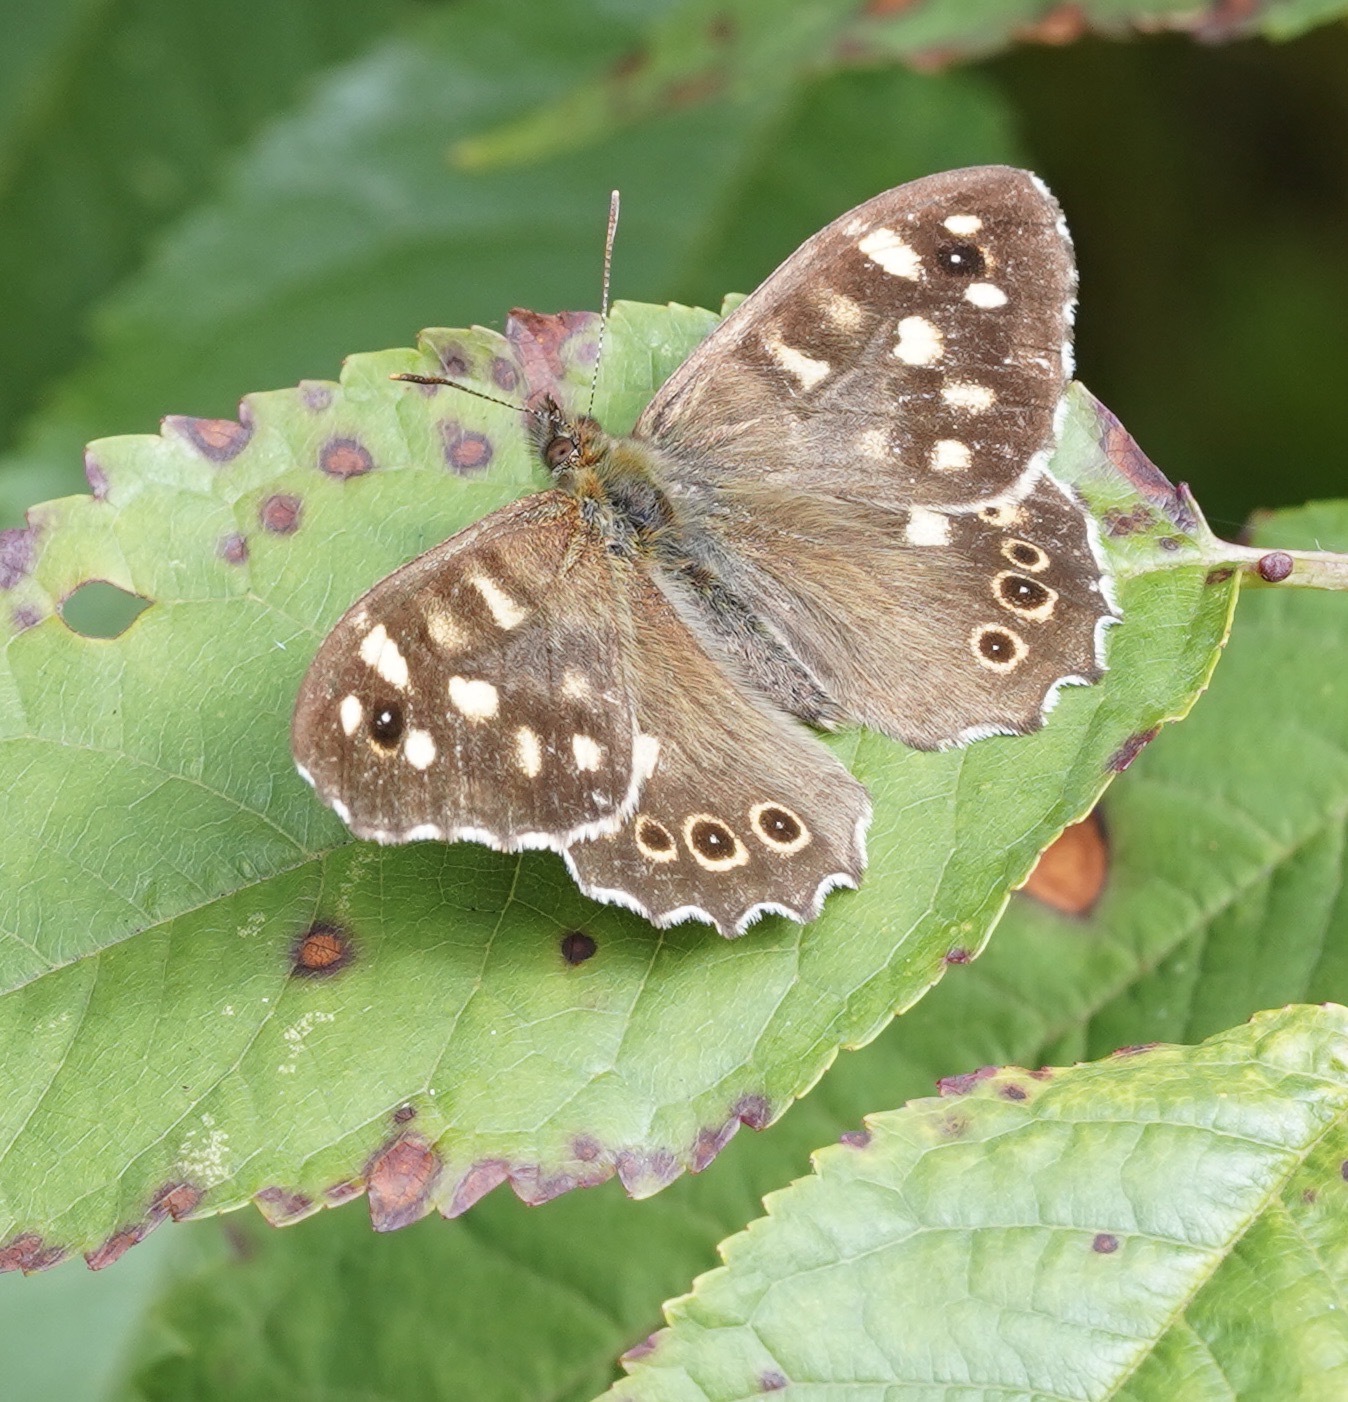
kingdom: Animalia
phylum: Arthropoda
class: Insecta
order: Lepidoptera
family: Nymphalidae
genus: Pararge
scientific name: Pararge aegeria
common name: Speckled wood
